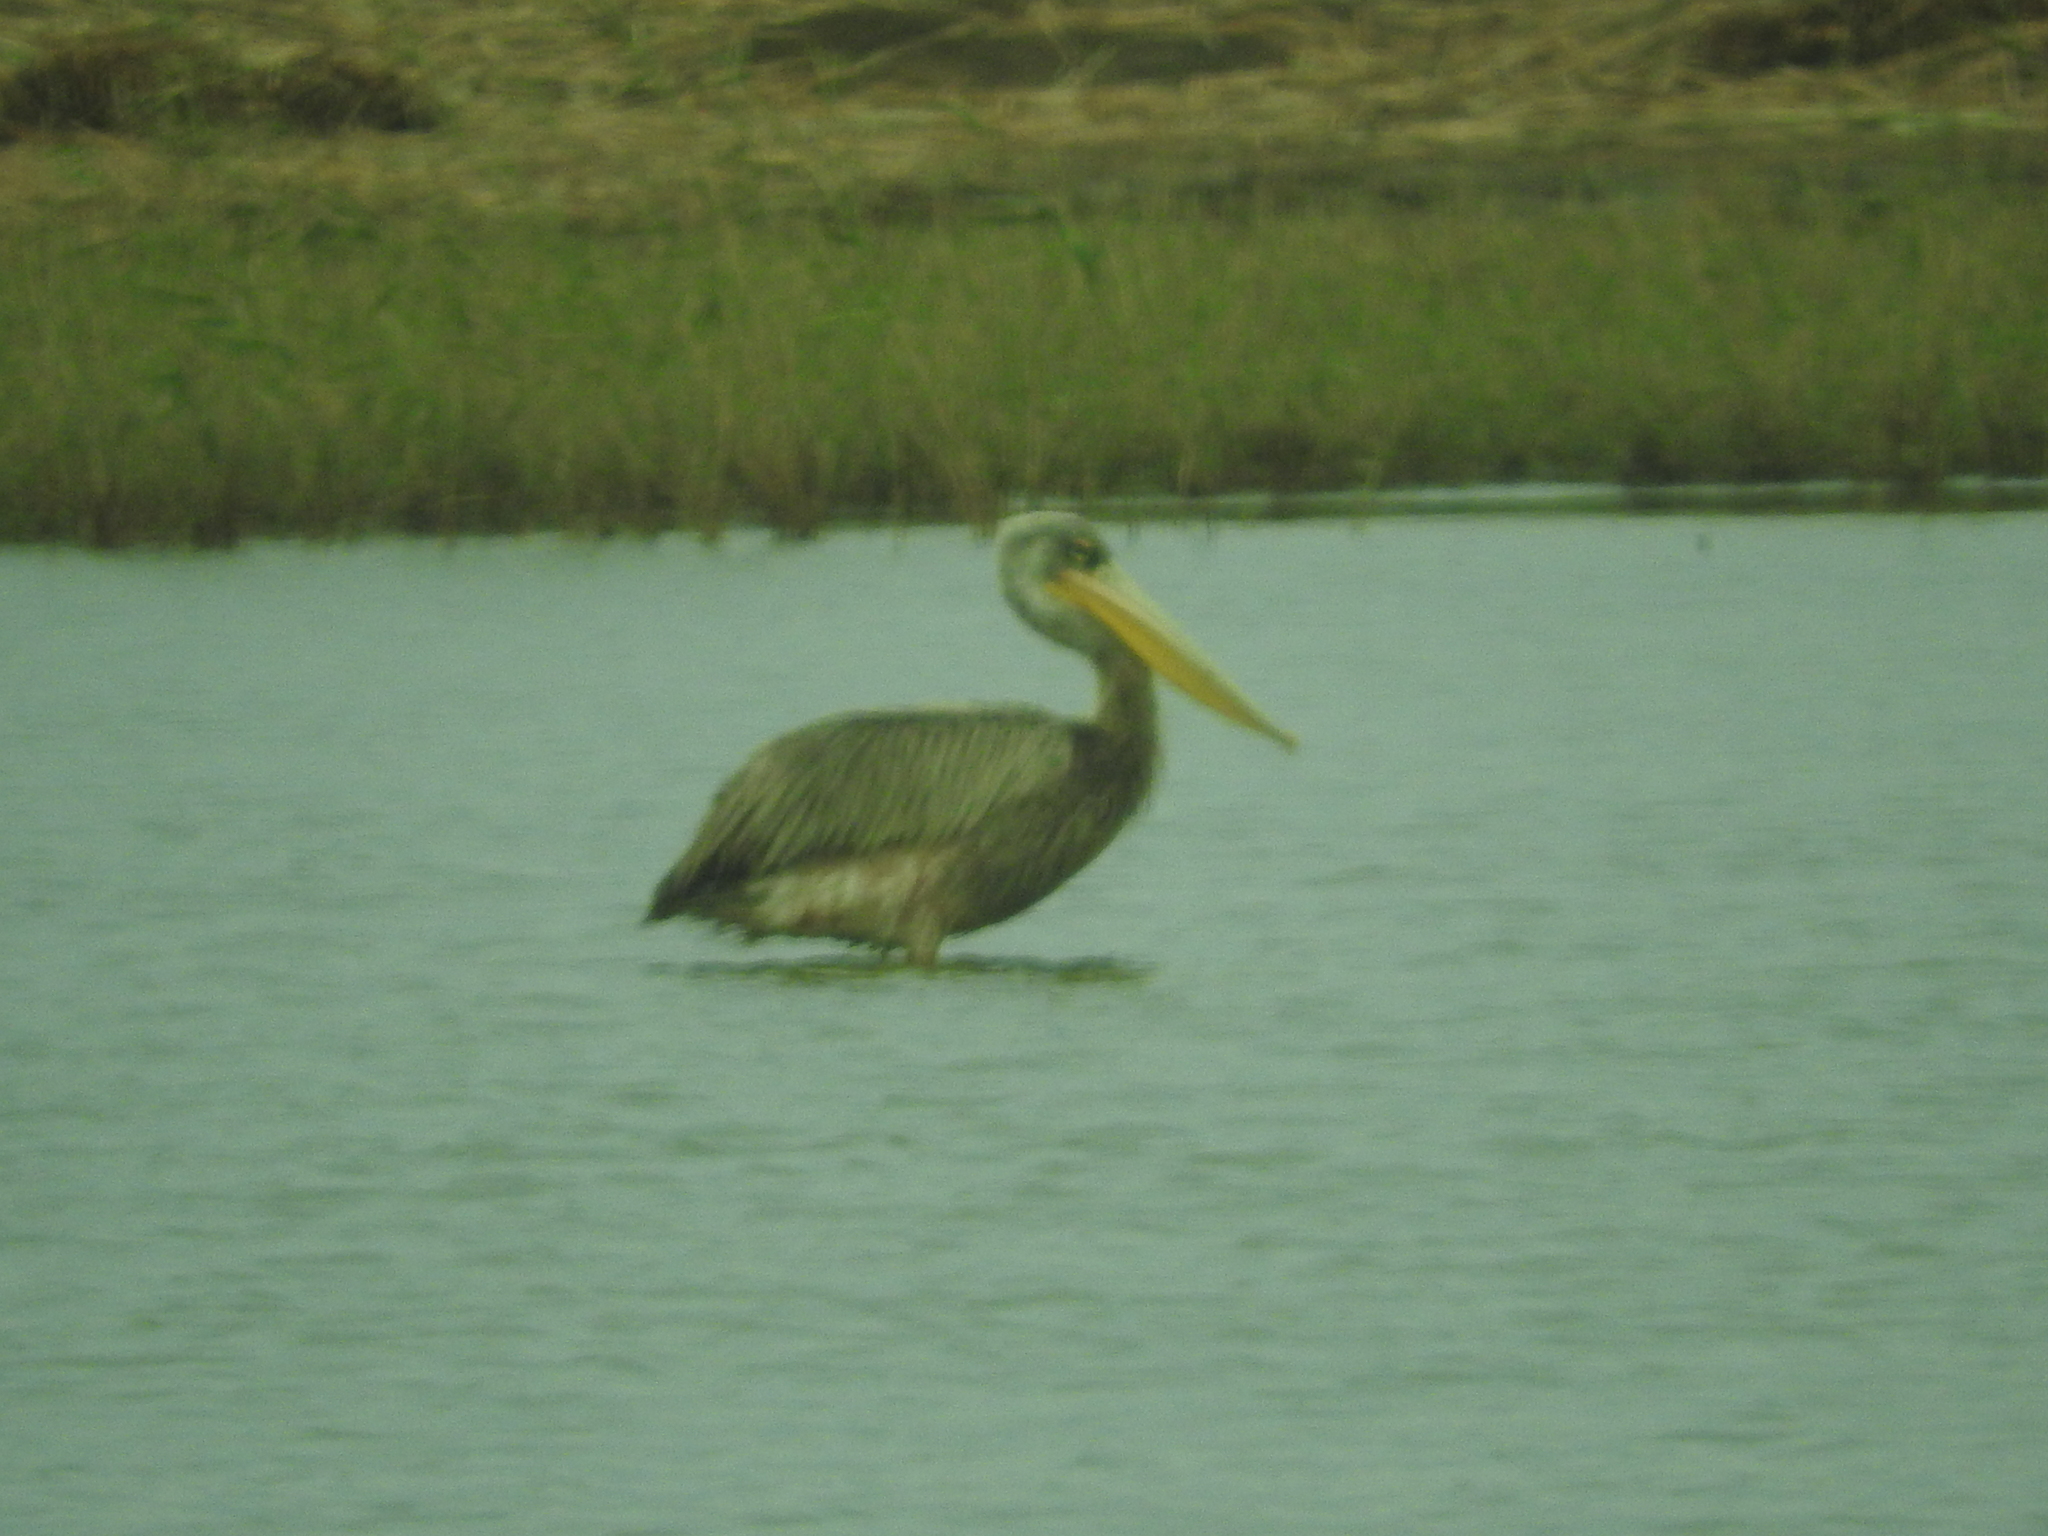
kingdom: Animalia
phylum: Chordata
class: Aves
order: Pelecaniformes
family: Pelecanidae
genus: Pelecanus
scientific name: Pelecanus rufescens
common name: Pink-backed pelican
